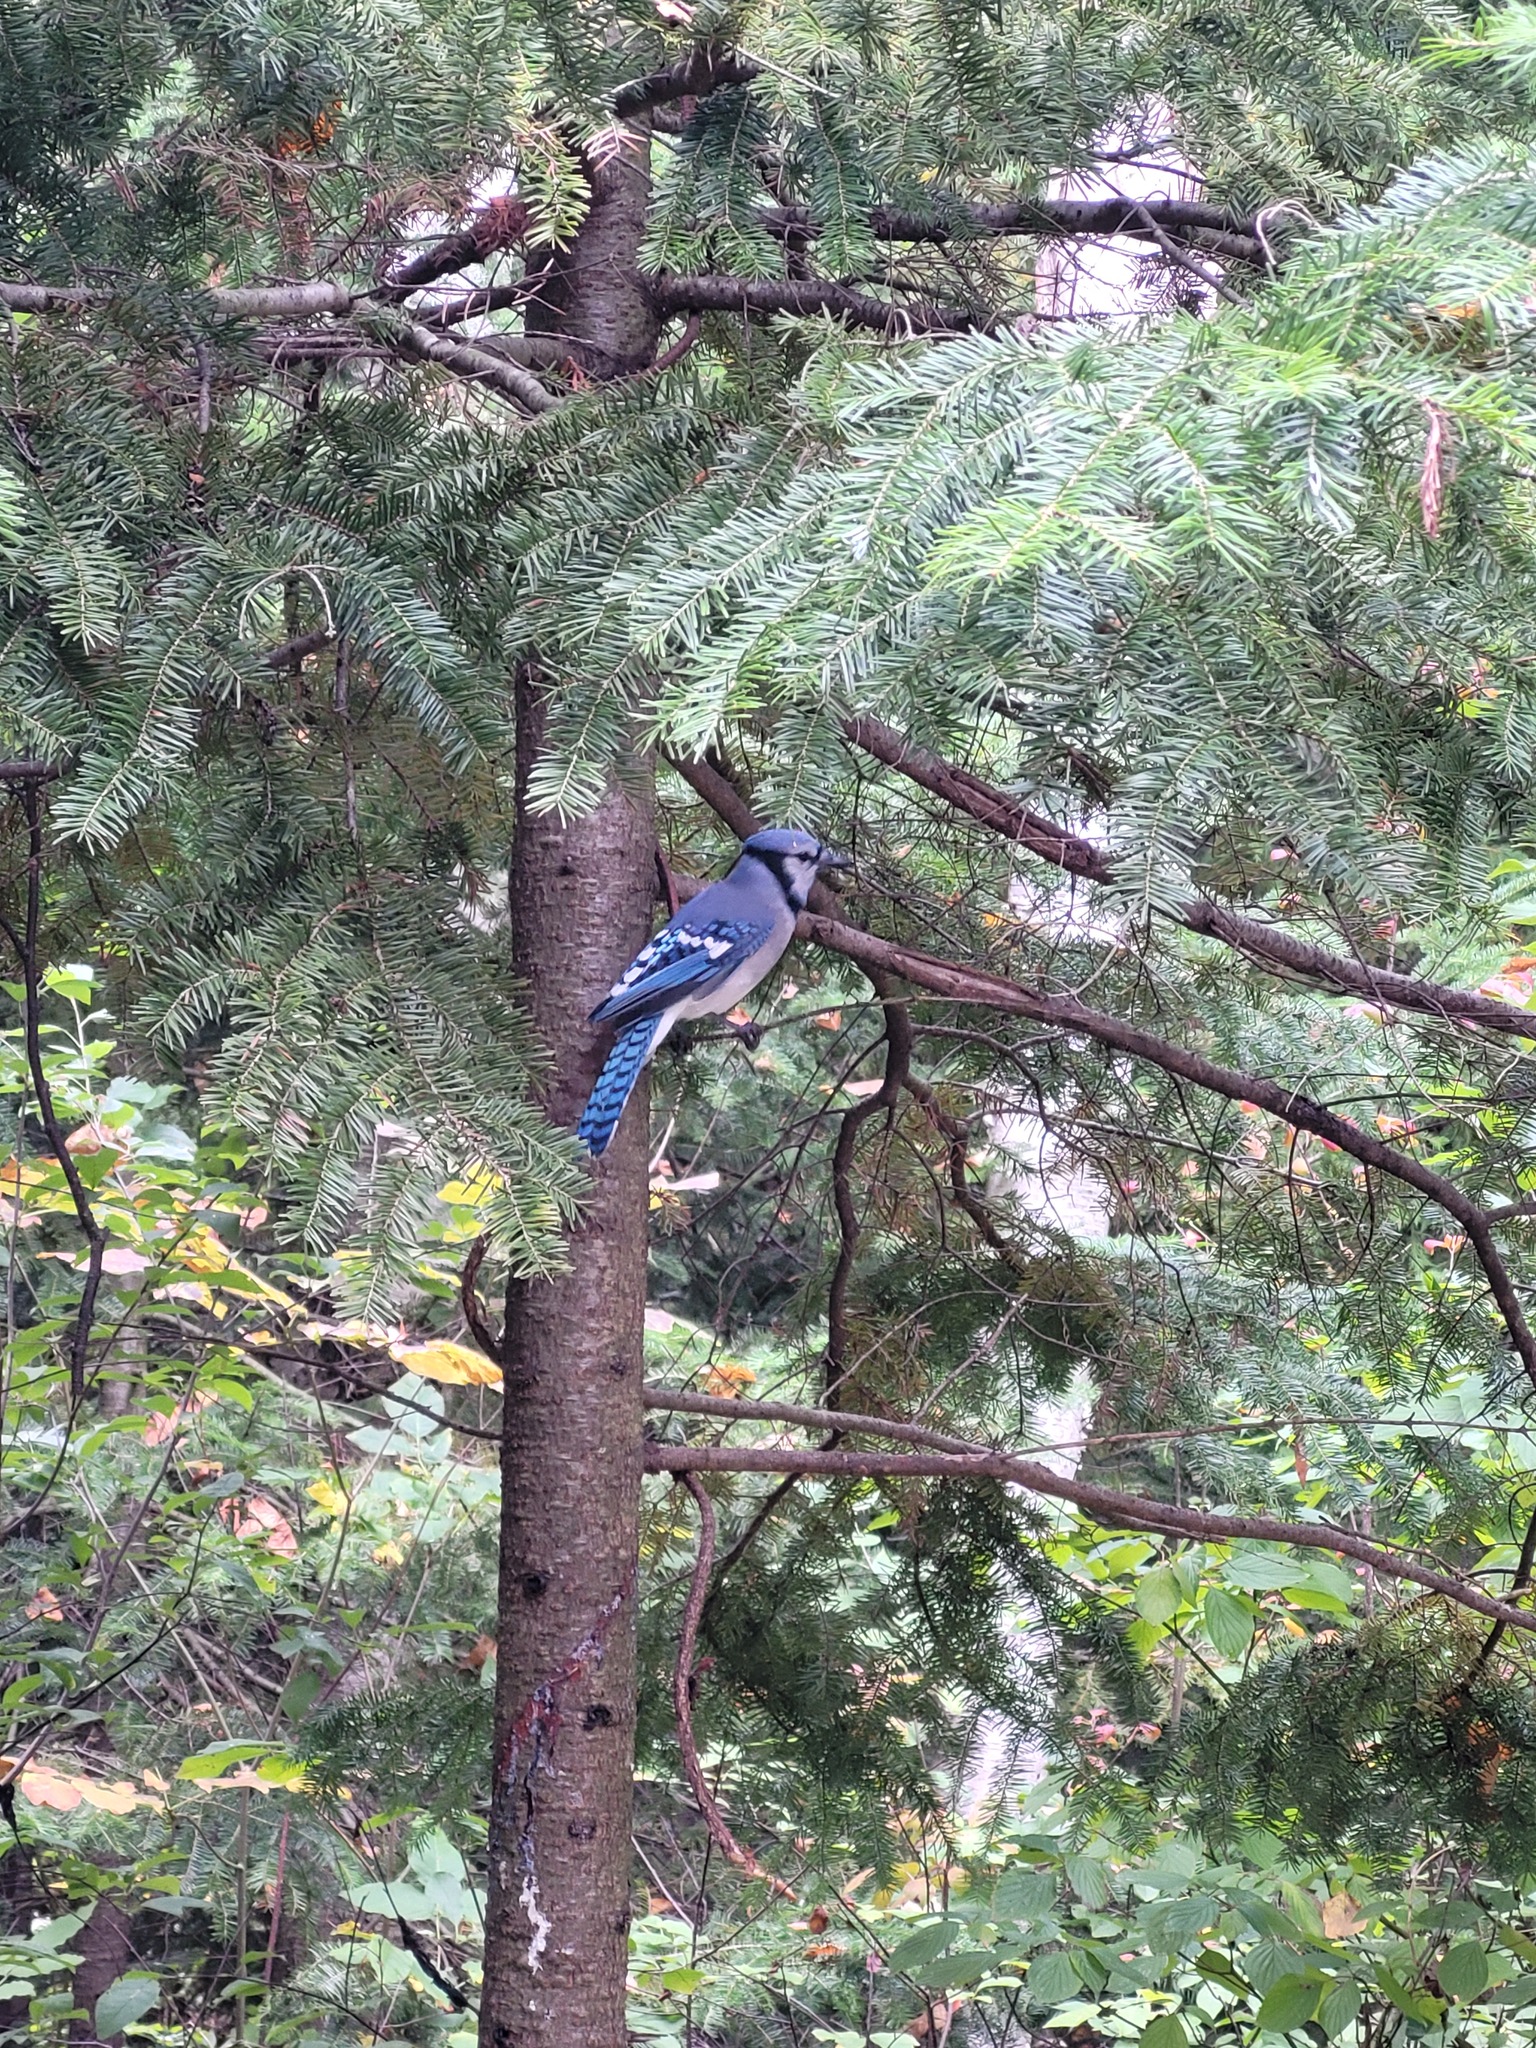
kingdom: Animalia
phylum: Chordata
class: Aves
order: Passeriformes
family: Corvidae
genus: Cyanocitta
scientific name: Cyanocitta cristata
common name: Blue jay
